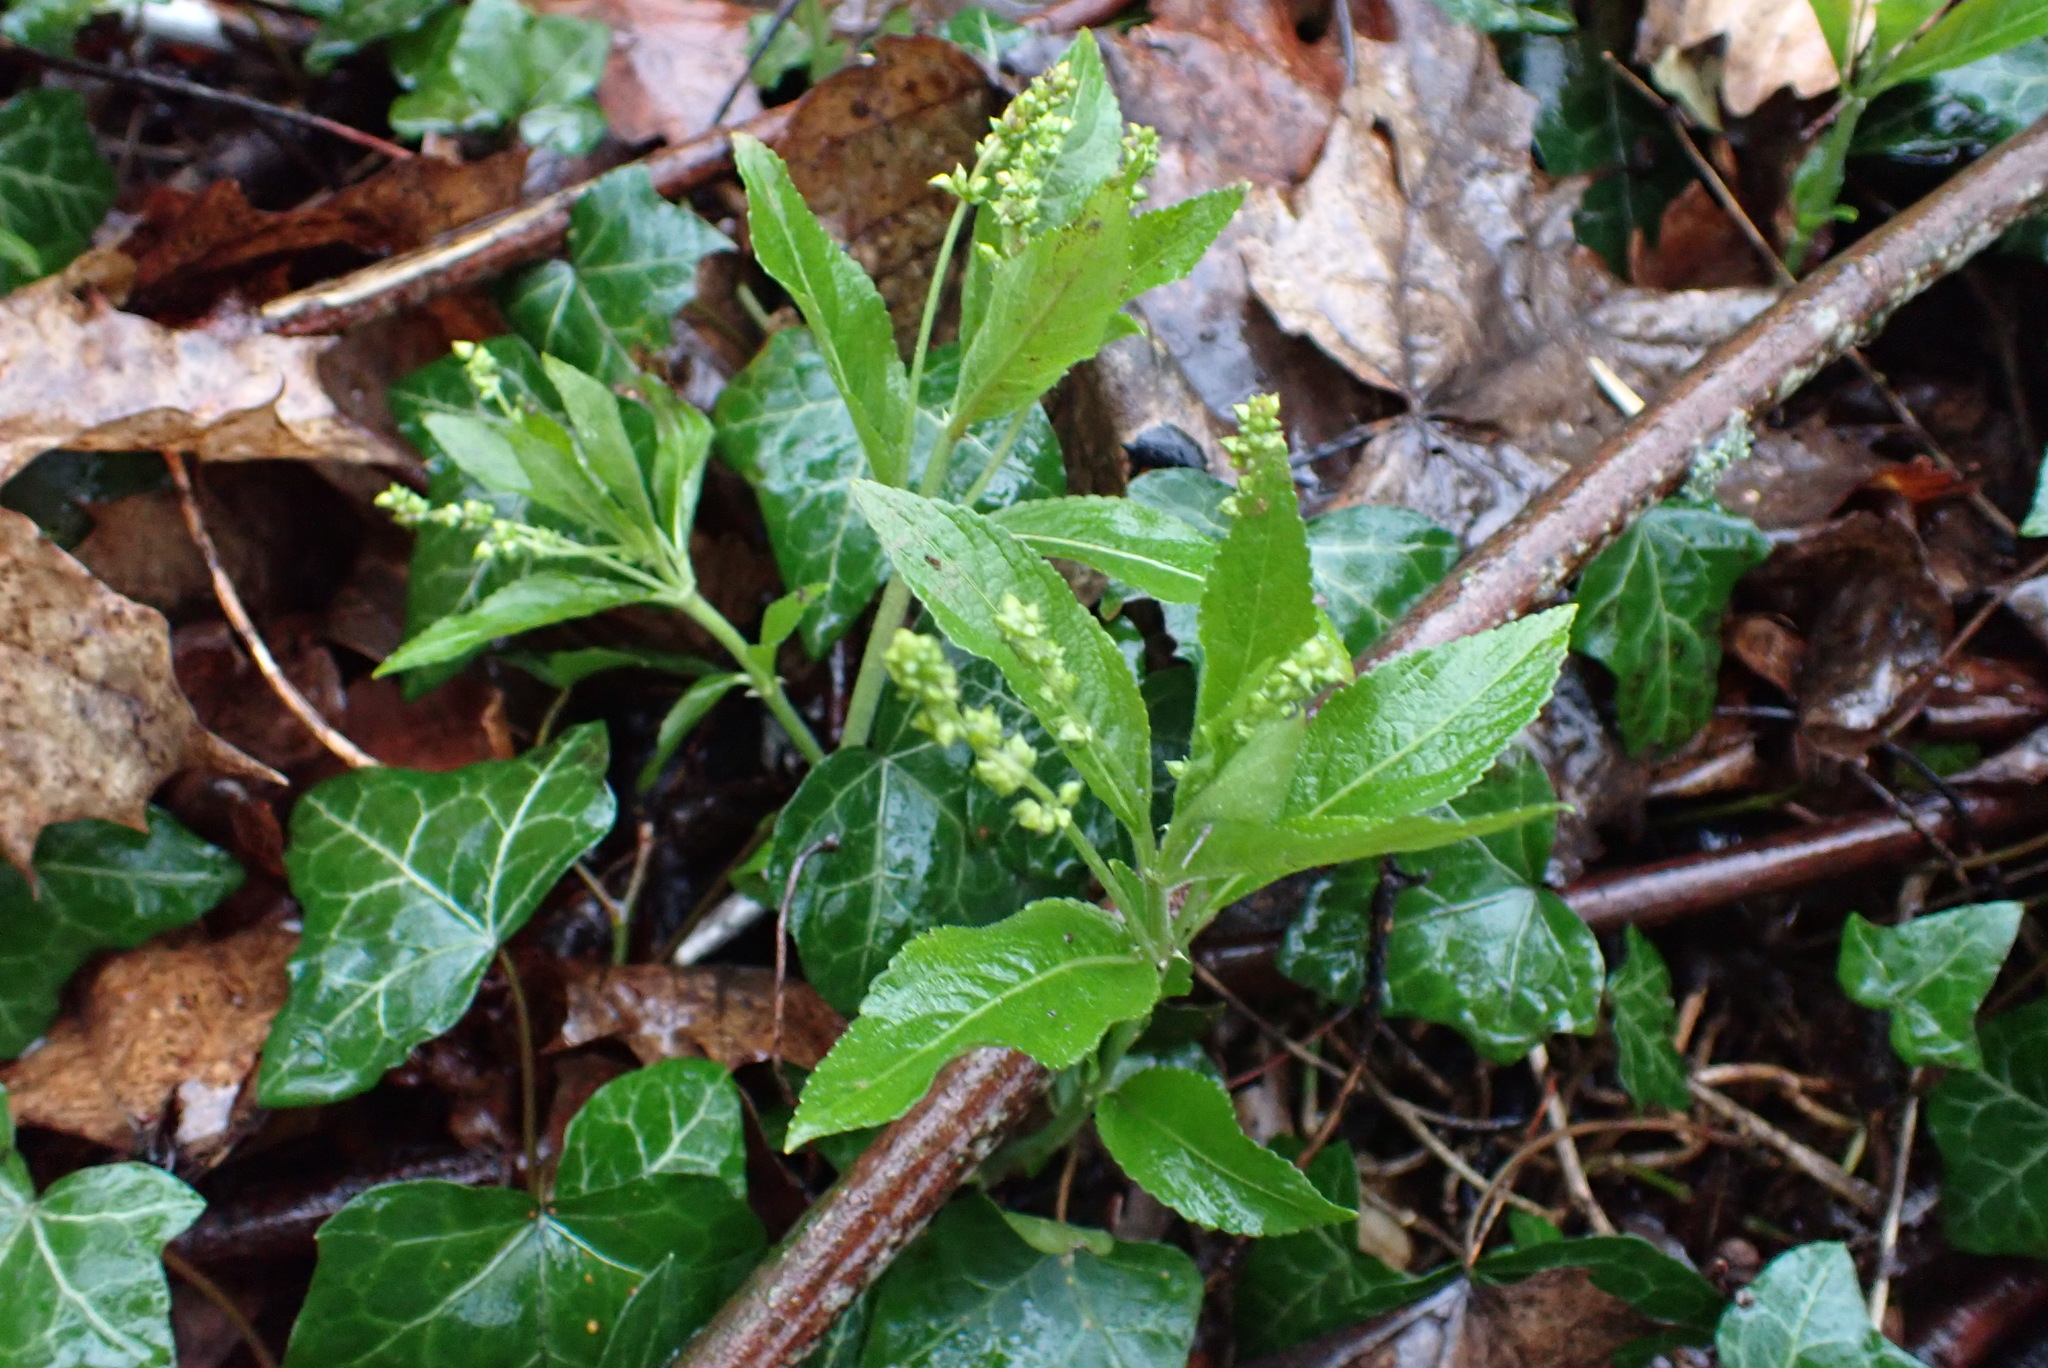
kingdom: Plantae
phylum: Tracheophyta
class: Magnoliopsida
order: Malpighiales
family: Euphorbiaceae
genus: Mercurialis
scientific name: Mercurialis perennis
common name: Dog mercury
